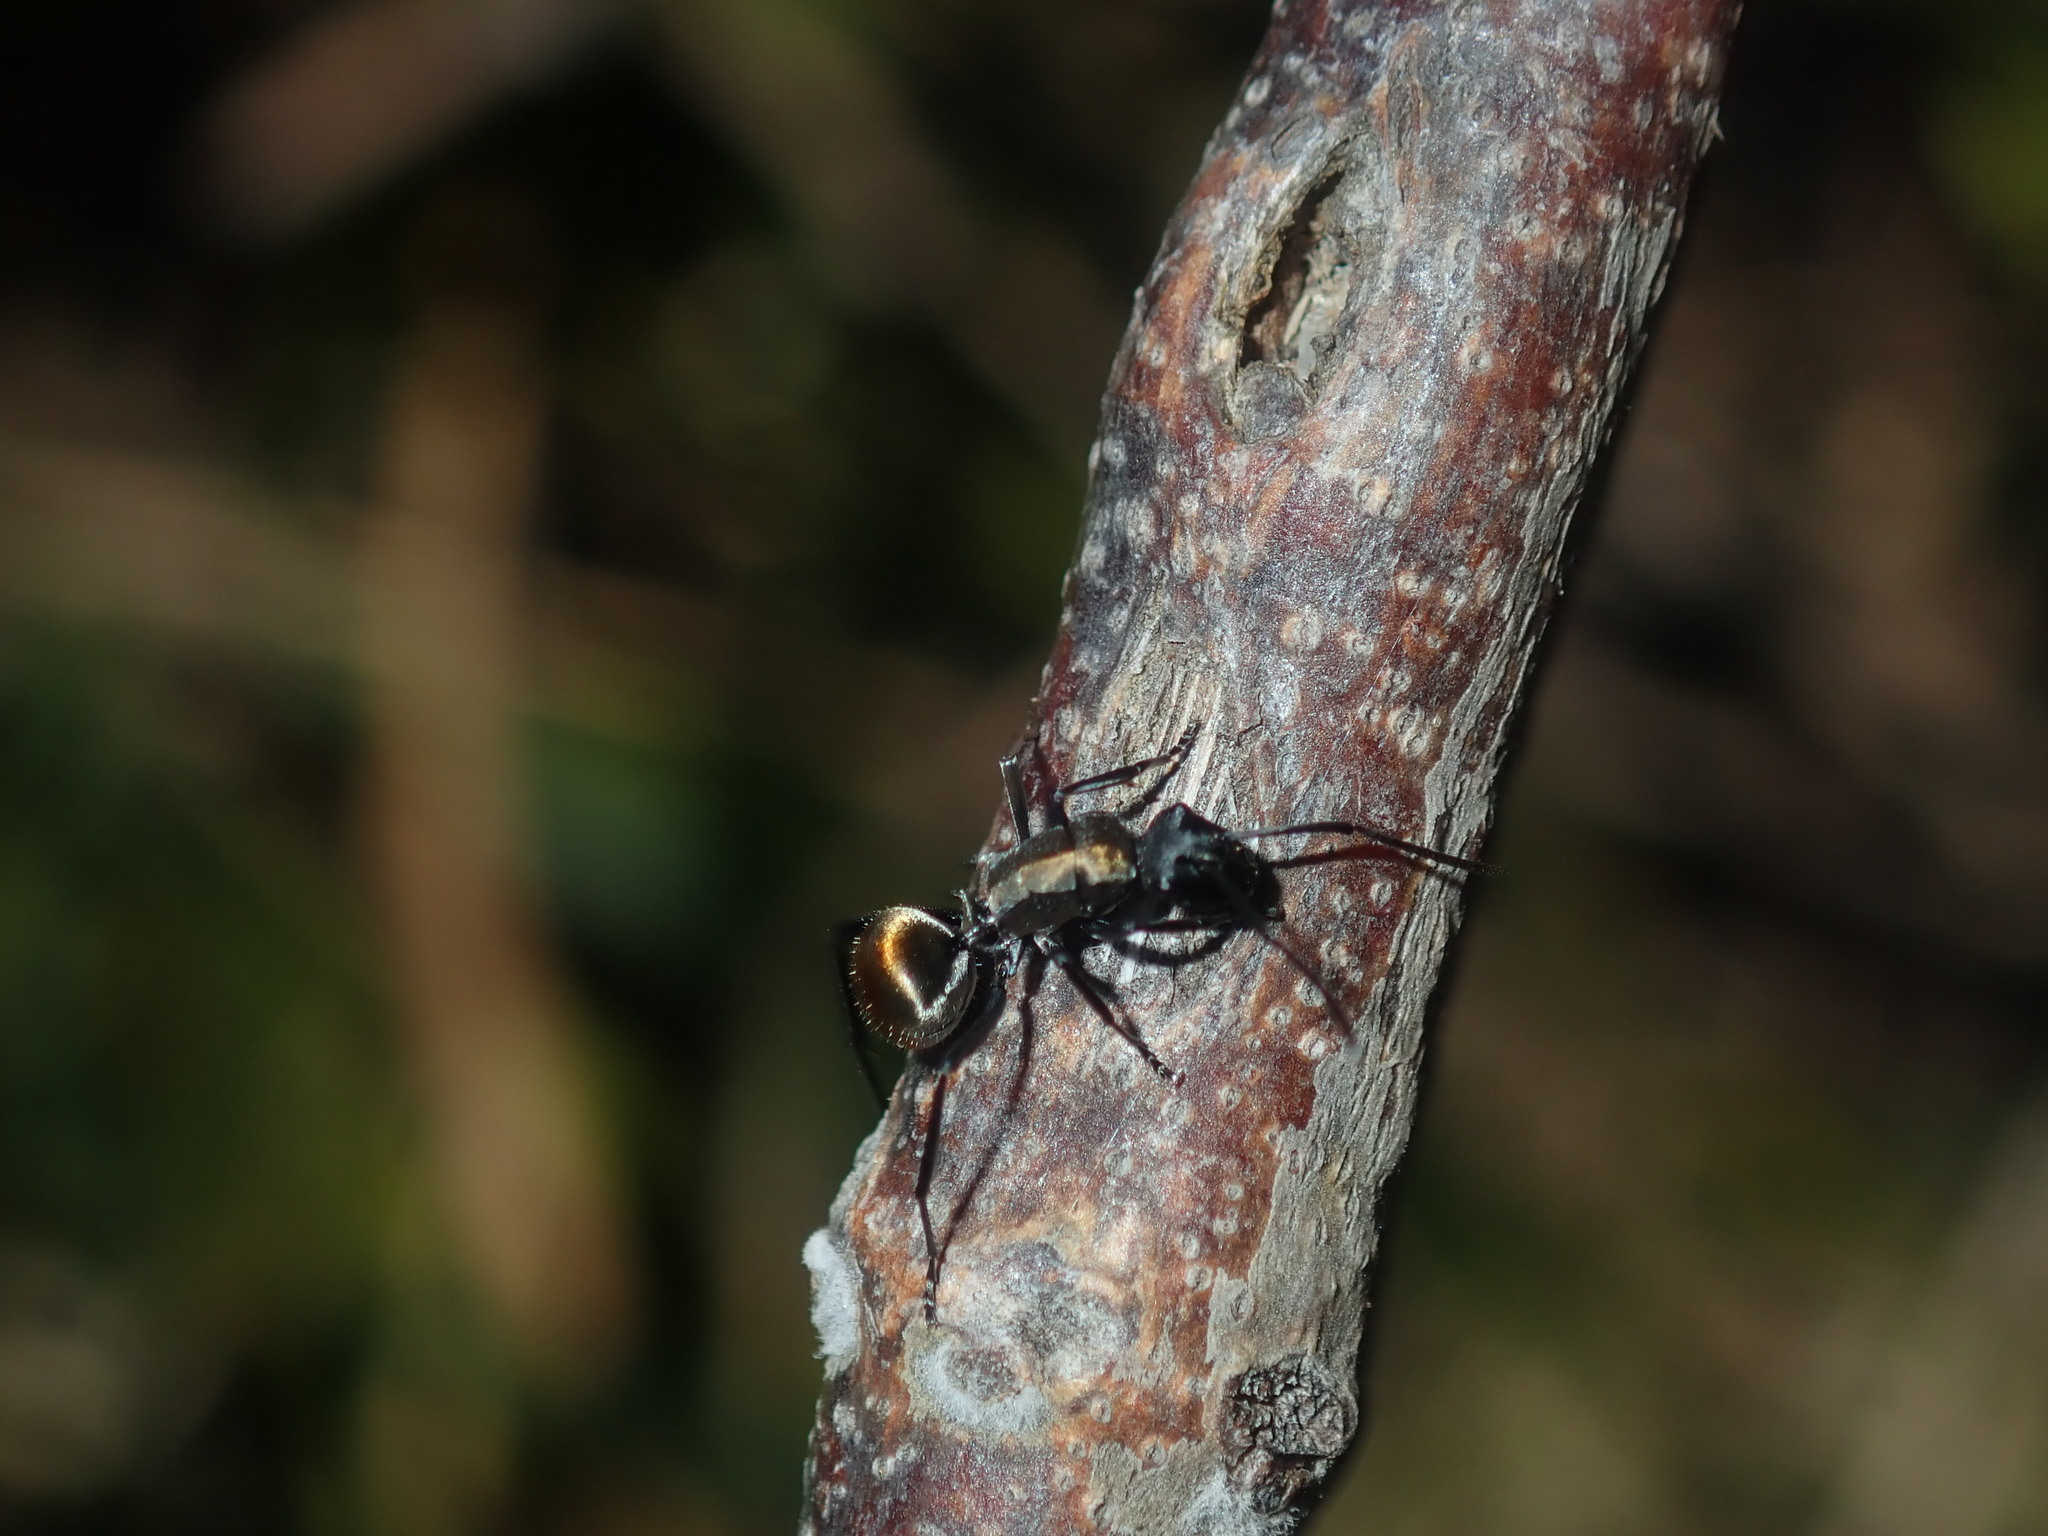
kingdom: Animalia
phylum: Arthropoda
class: Insecta
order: Hymenoptera
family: Formicidae
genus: Polyrhachis
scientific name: Polyrhachis ammon
